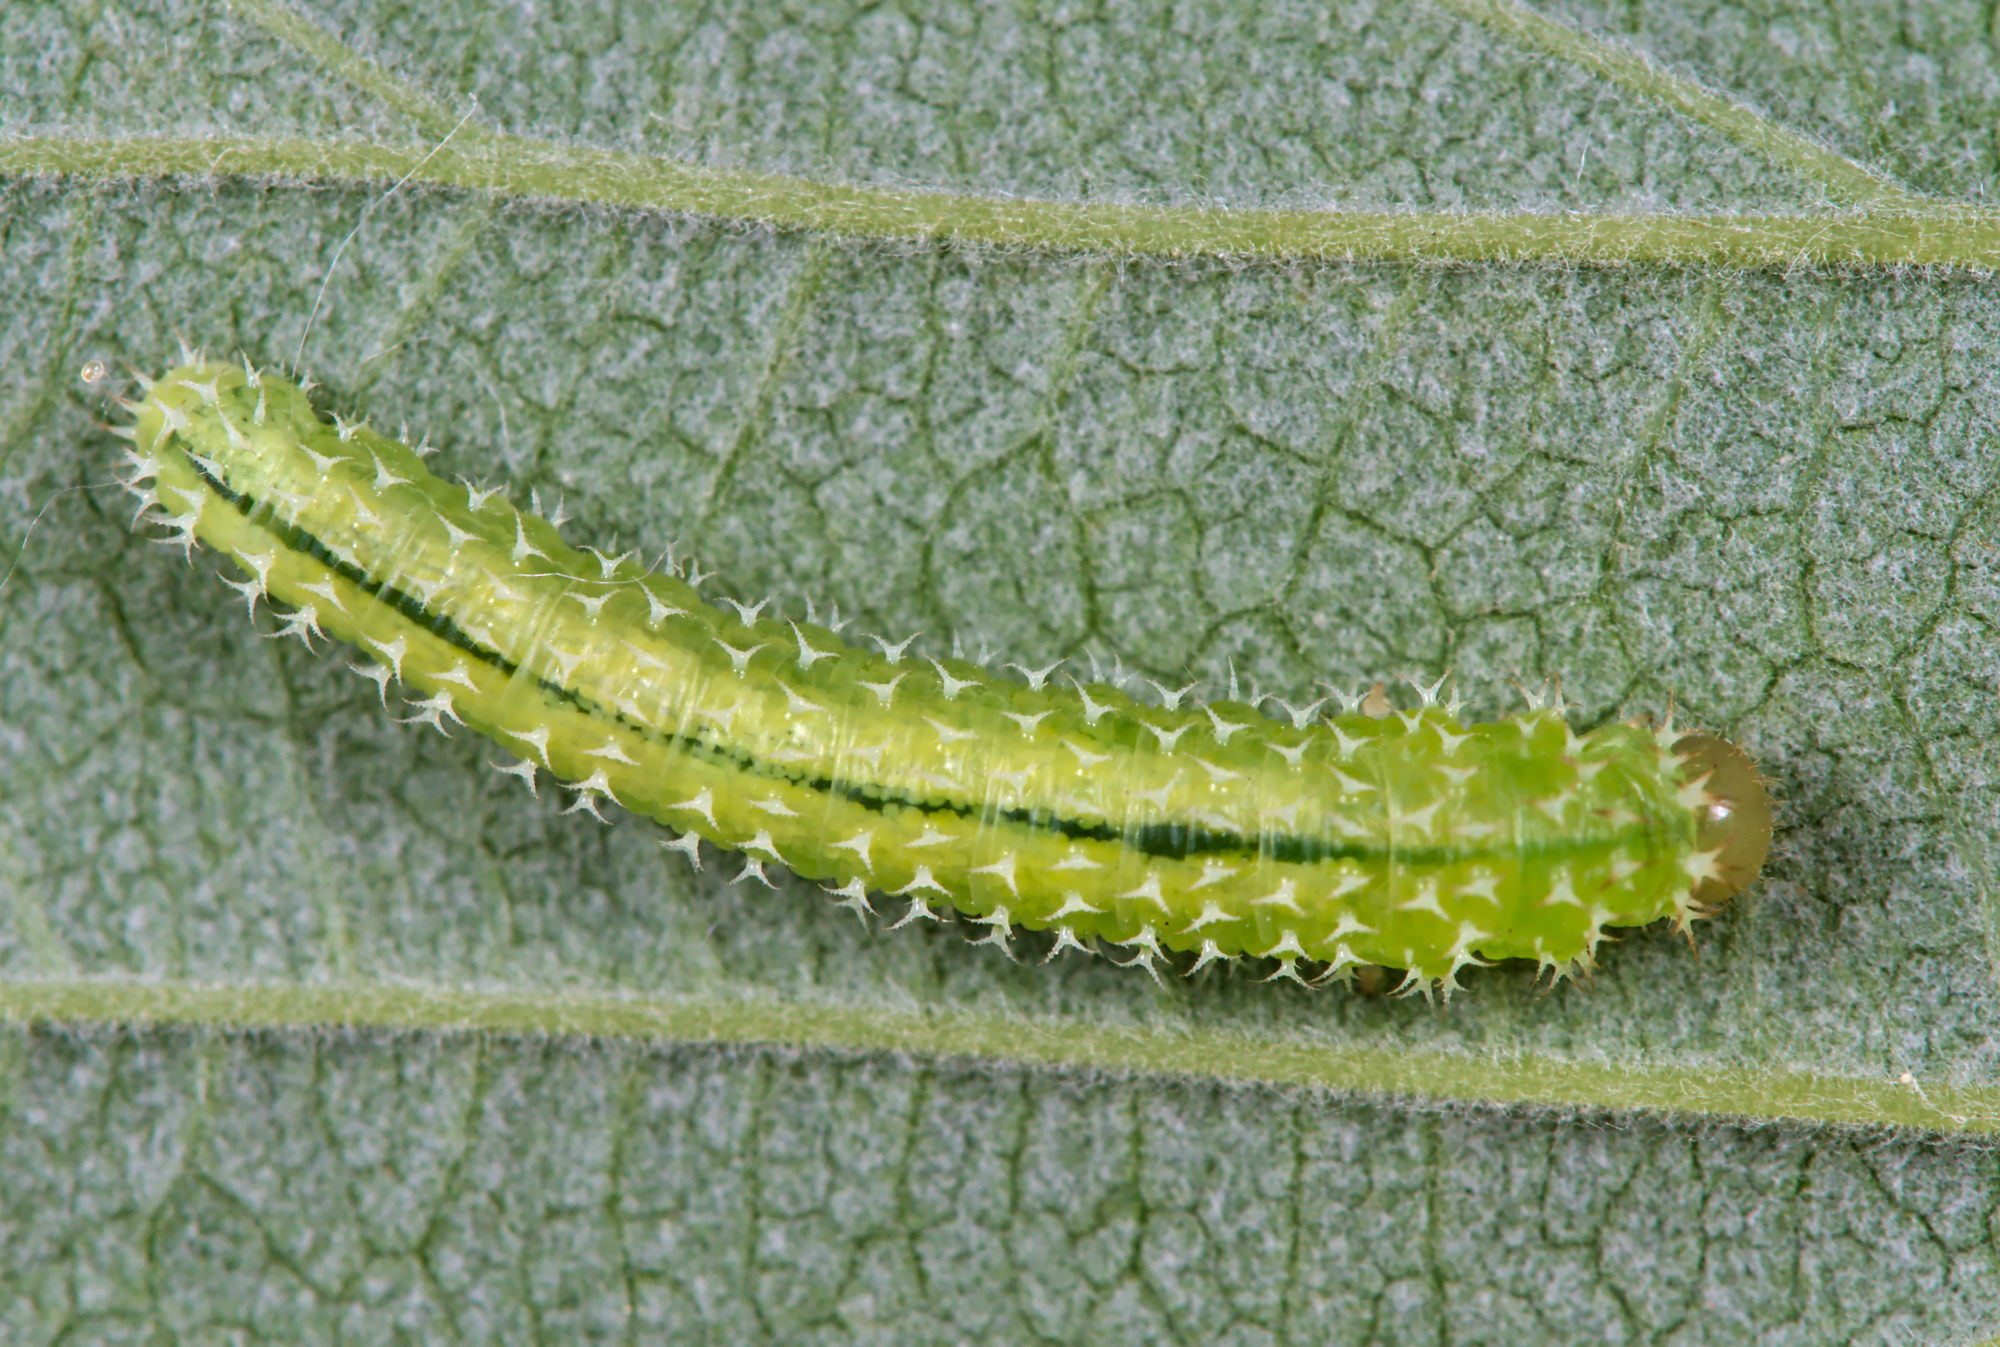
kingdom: Animalia
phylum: Arthropoda
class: Insecta
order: Hymenoptera
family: Tenthredinidae
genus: Monophadnoides
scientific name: Monophadnoides rubi
